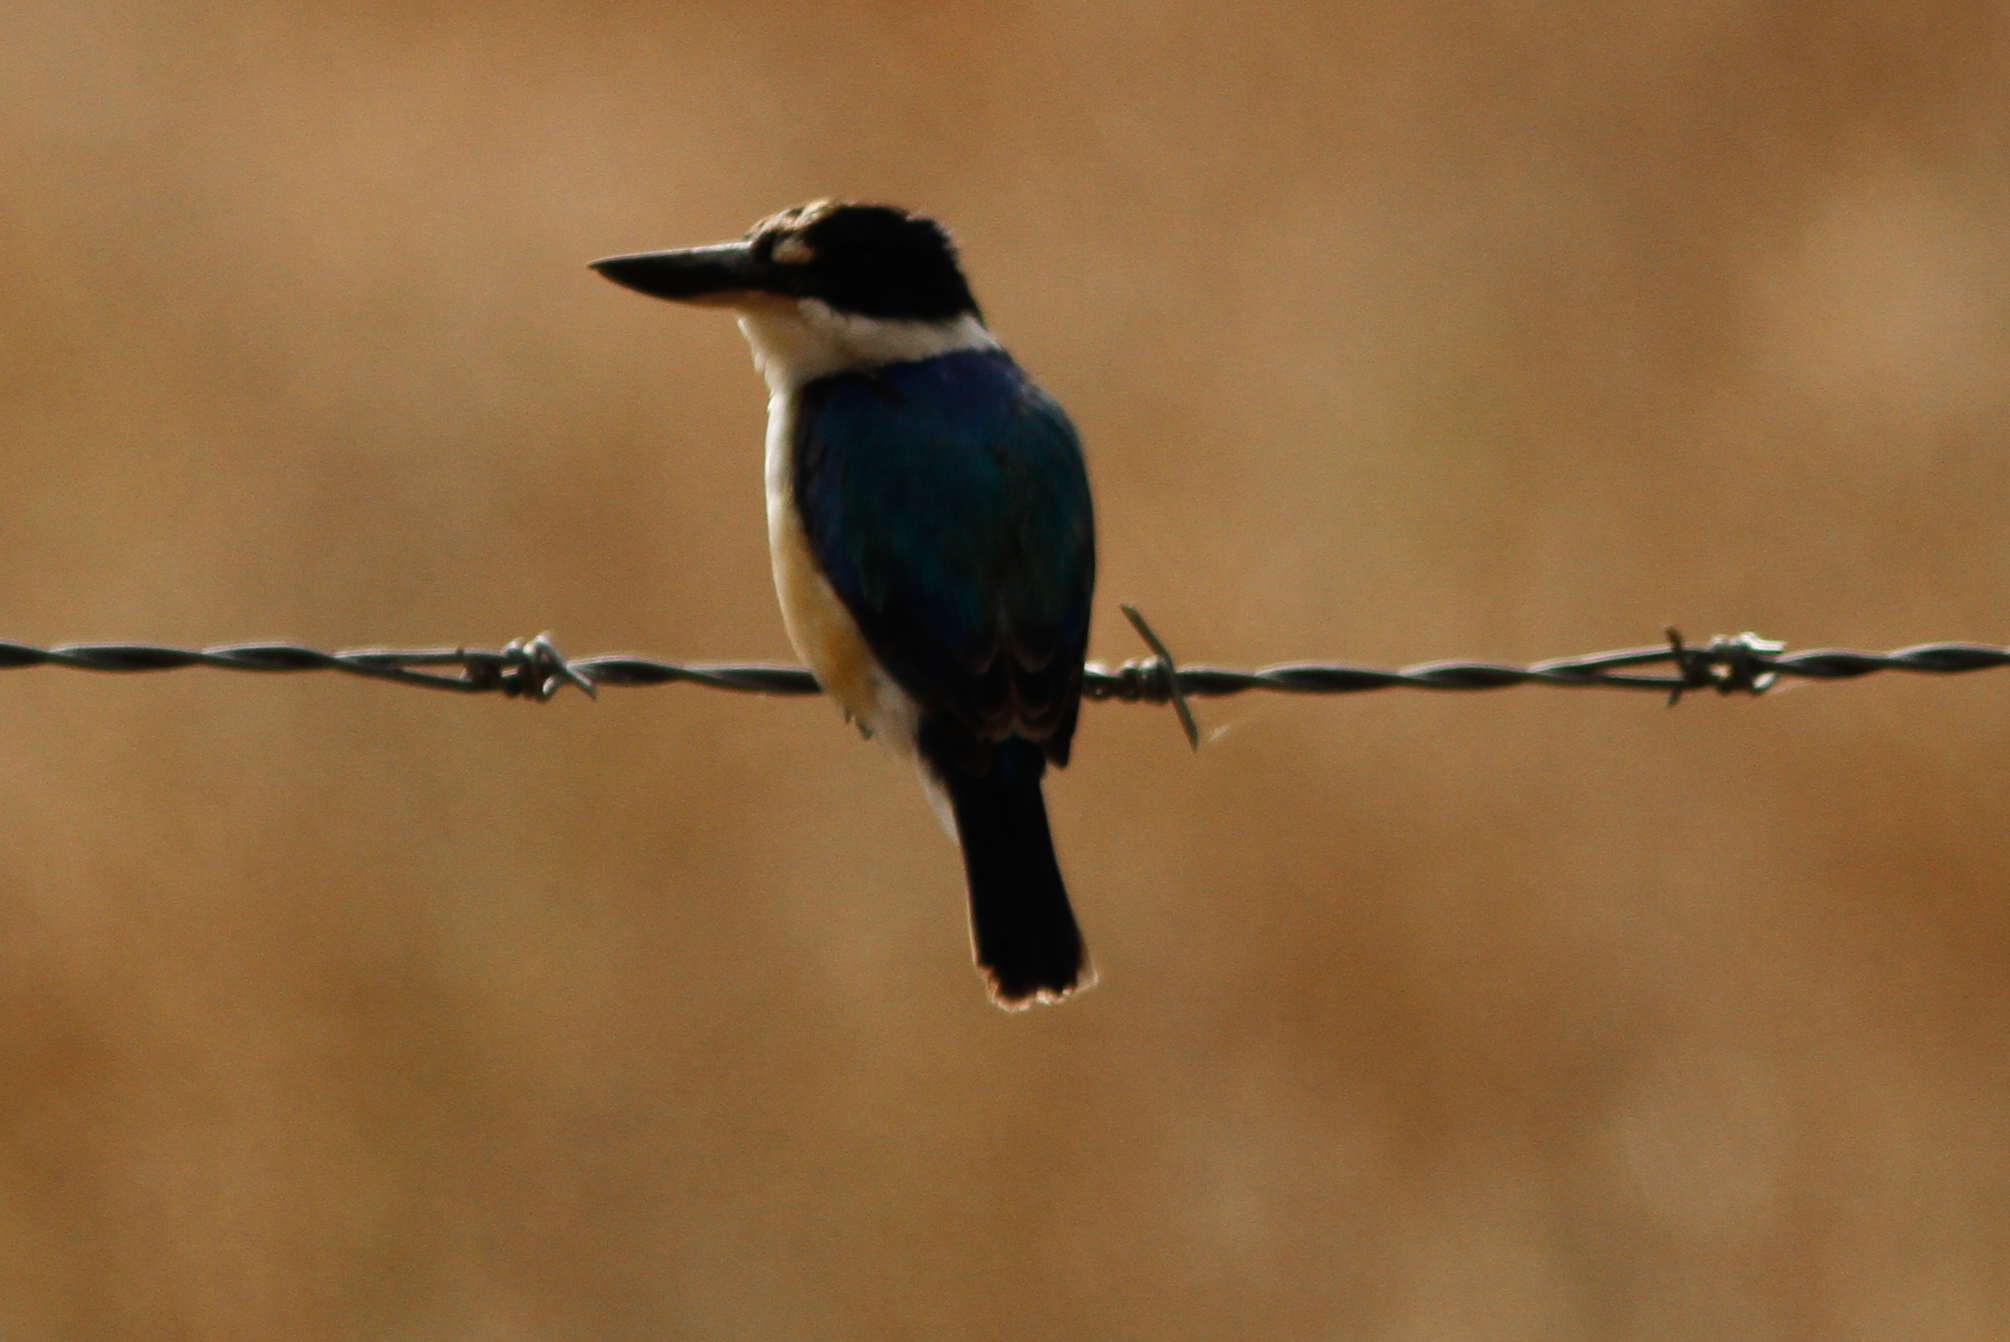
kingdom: Animalia
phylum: Chordata
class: Aves
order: Coraciiformes
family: Alcedinidae
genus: Todiramphus
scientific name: Todiramphus macleayii
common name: Forest kingfisher
